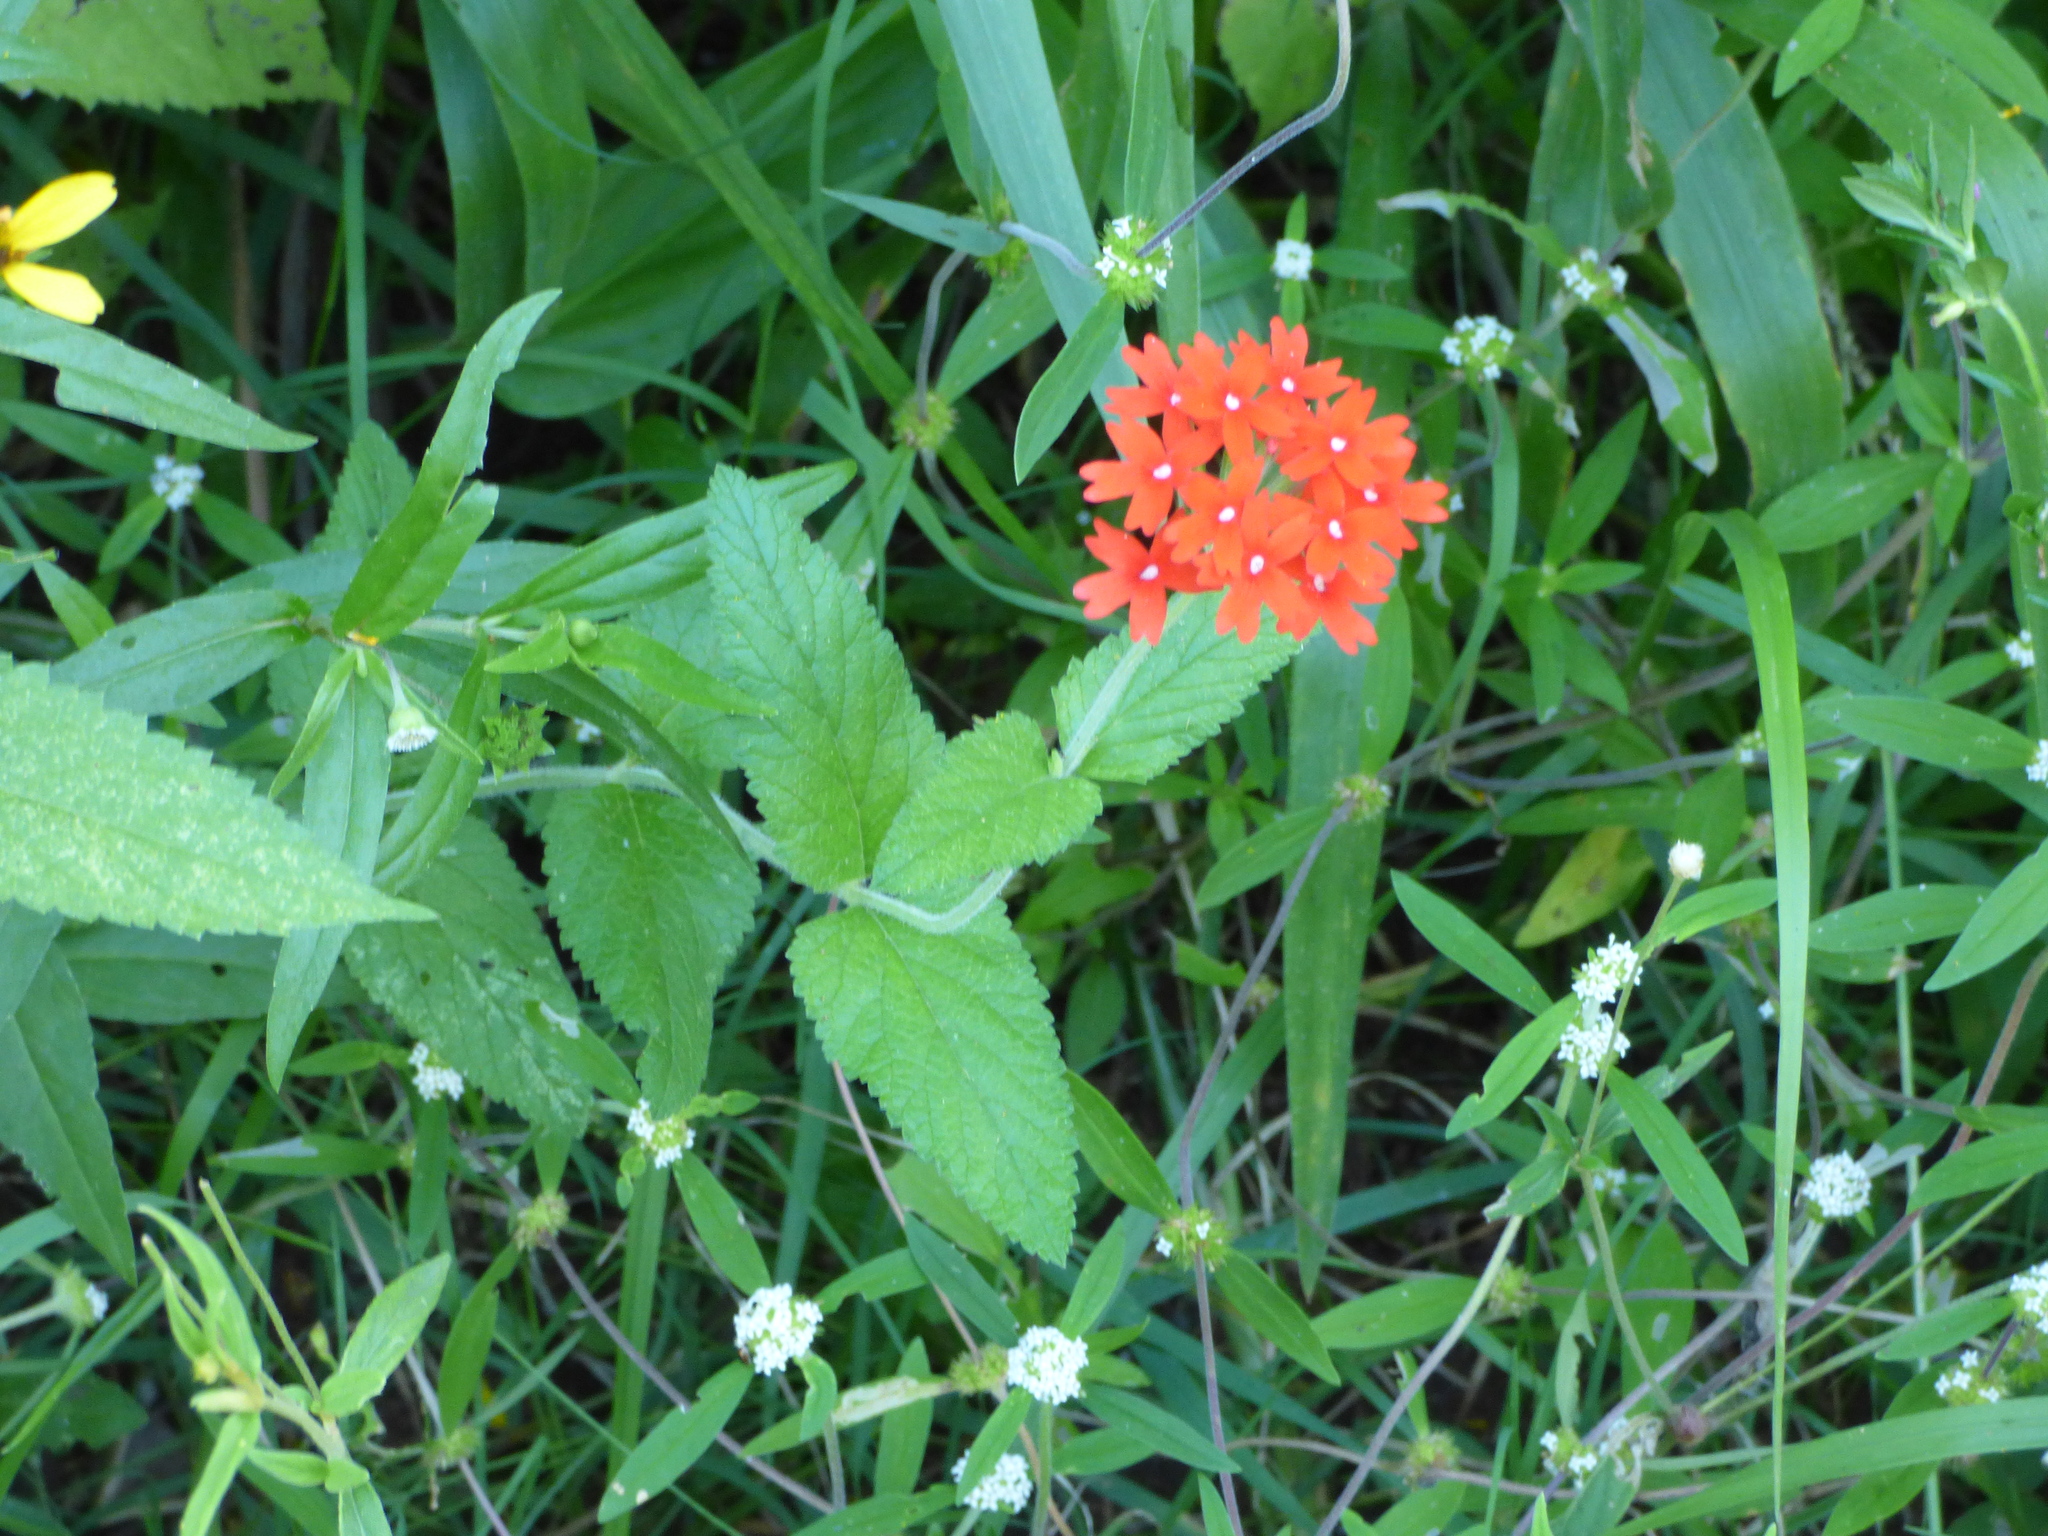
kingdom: Plantae
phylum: Tracheophyta
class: Magnoliopsida
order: Lamiales
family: Verbenaceae
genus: Verbena
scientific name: Verbena tweedieana
